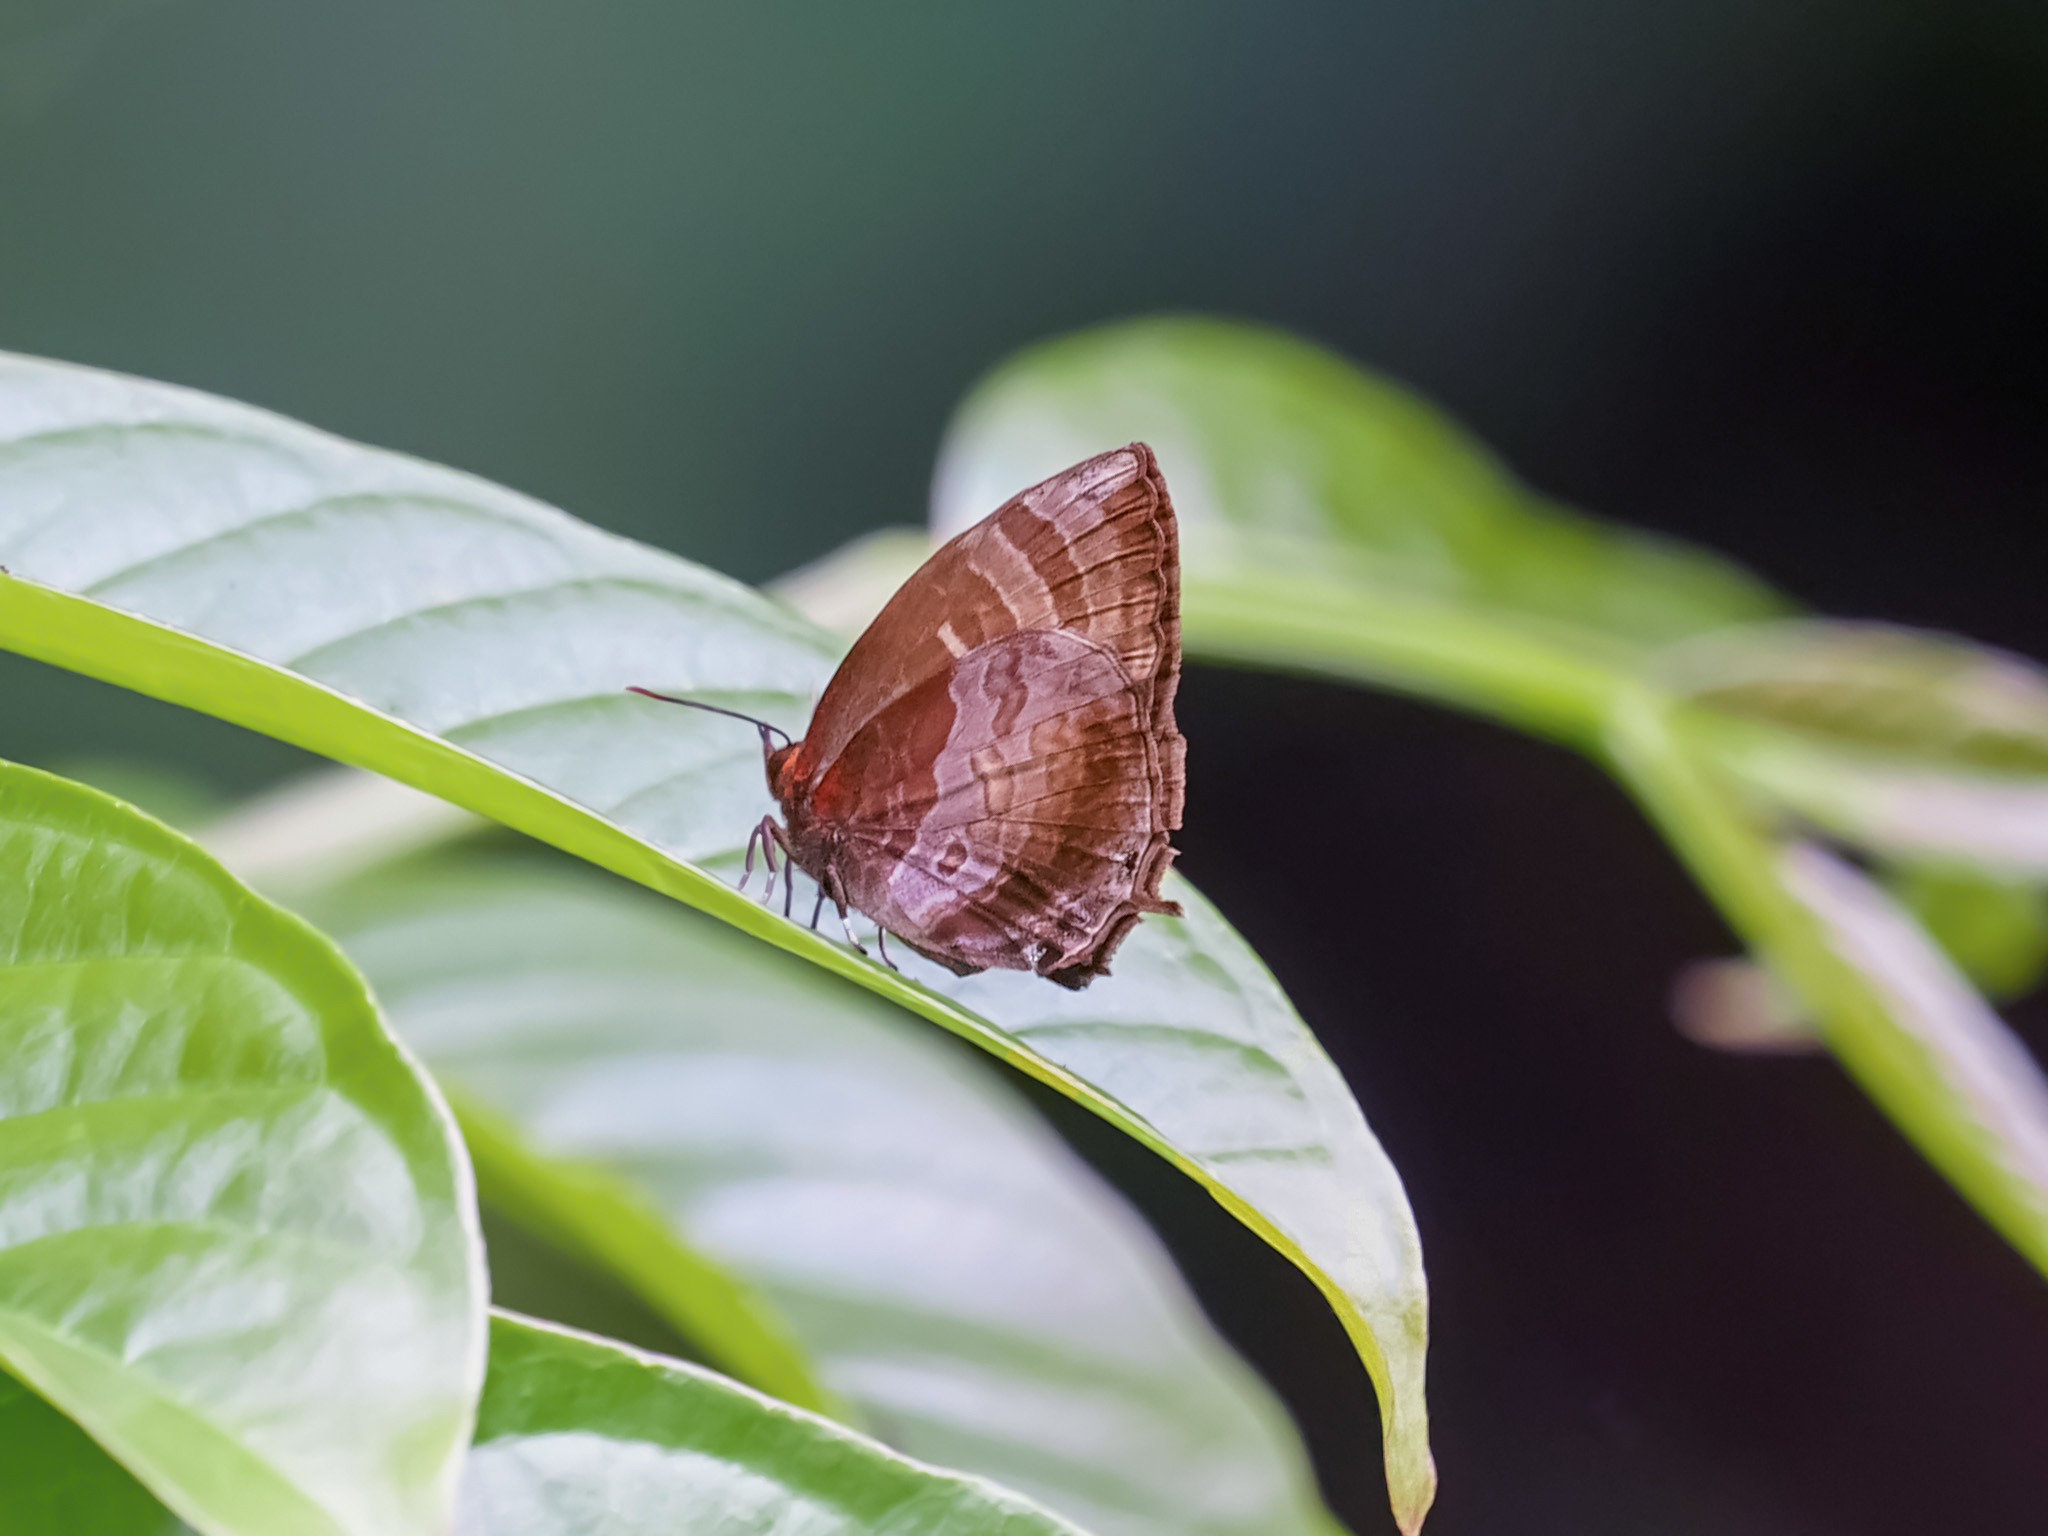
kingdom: Animalia
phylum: Arthropoda
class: Insecta
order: Lepidoptera
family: Lycaenidae
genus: Flos
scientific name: Flos apidanus
